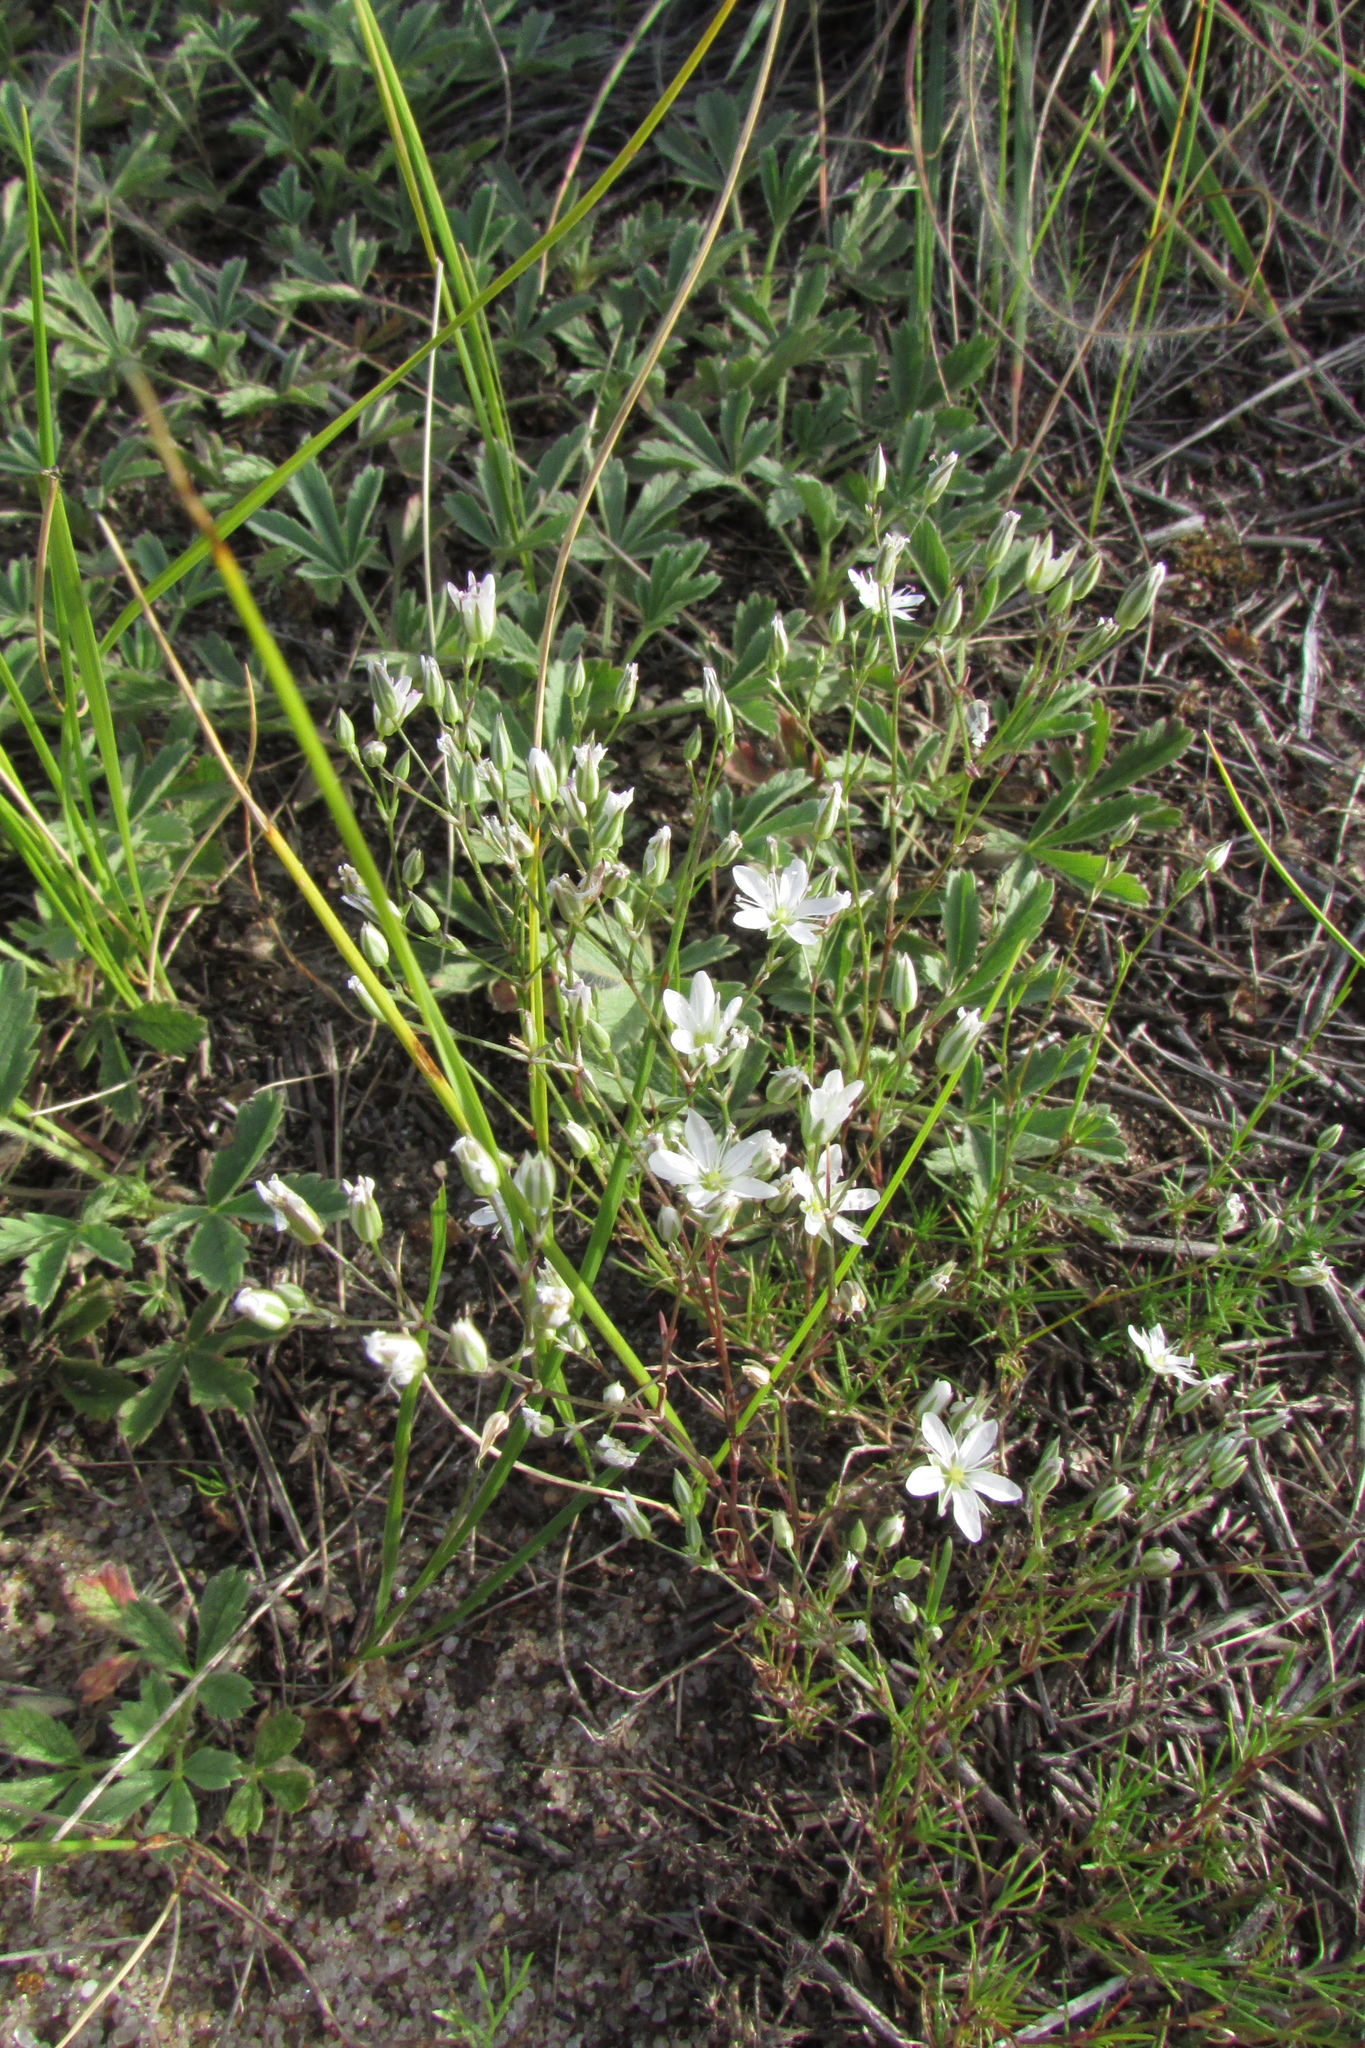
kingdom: Plantae
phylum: Tracheophyta
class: Magnoliopsida
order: Caryophyllales
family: Caryophyllaceae
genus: Minuartia
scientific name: Minuartia setacea
